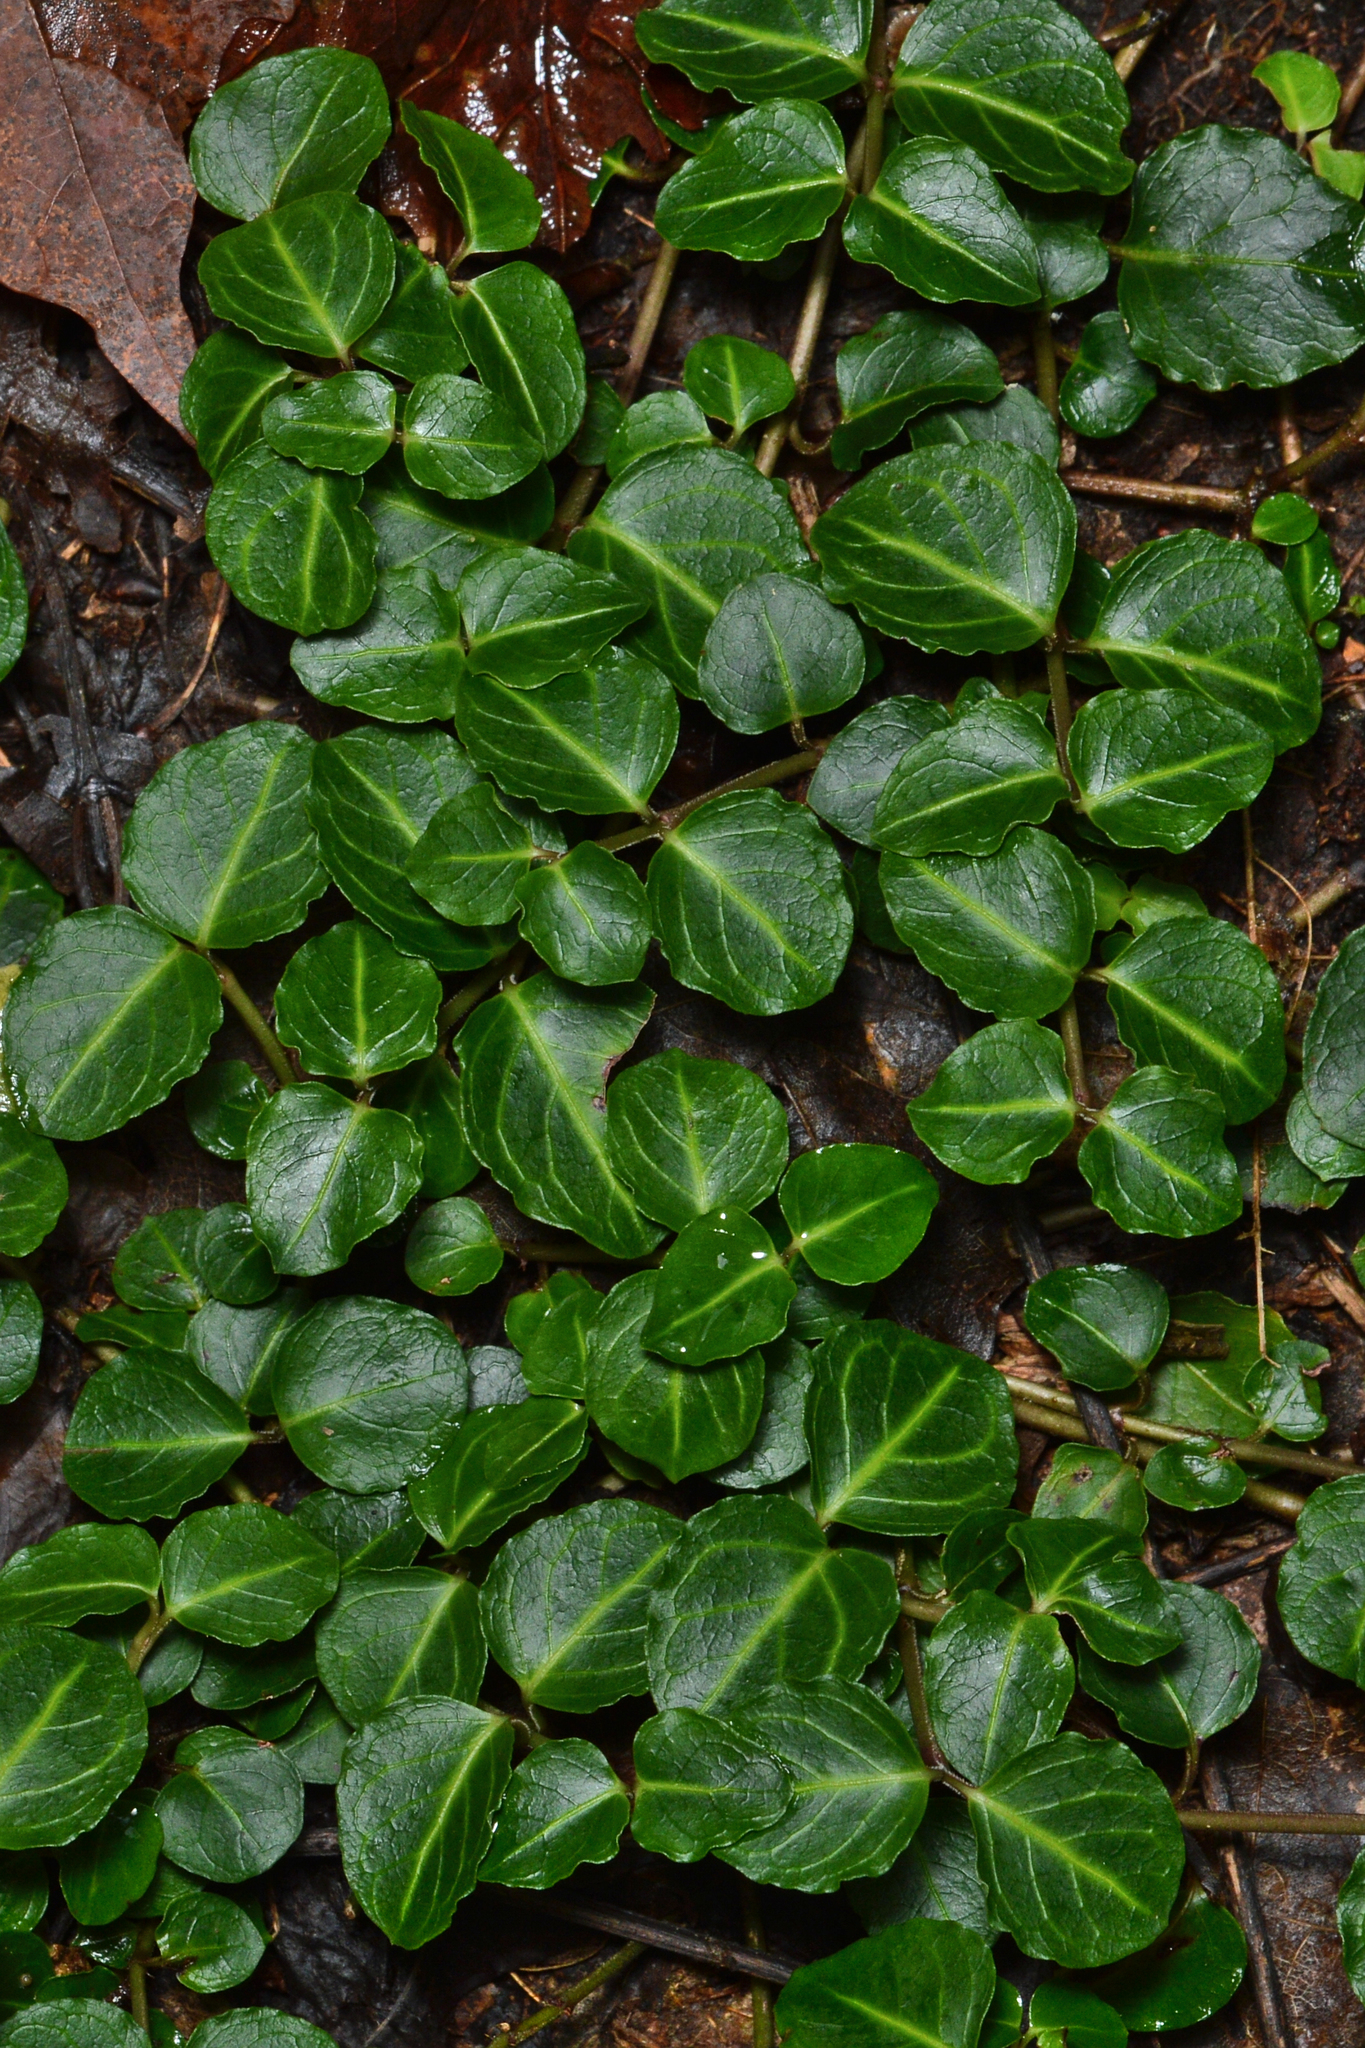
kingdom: Plantae
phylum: Tracheophyta
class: Magnoliopsida
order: Gentianales
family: Rubiaceae
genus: Mitchella
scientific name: Mitchella repens
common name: Partridge-berry
